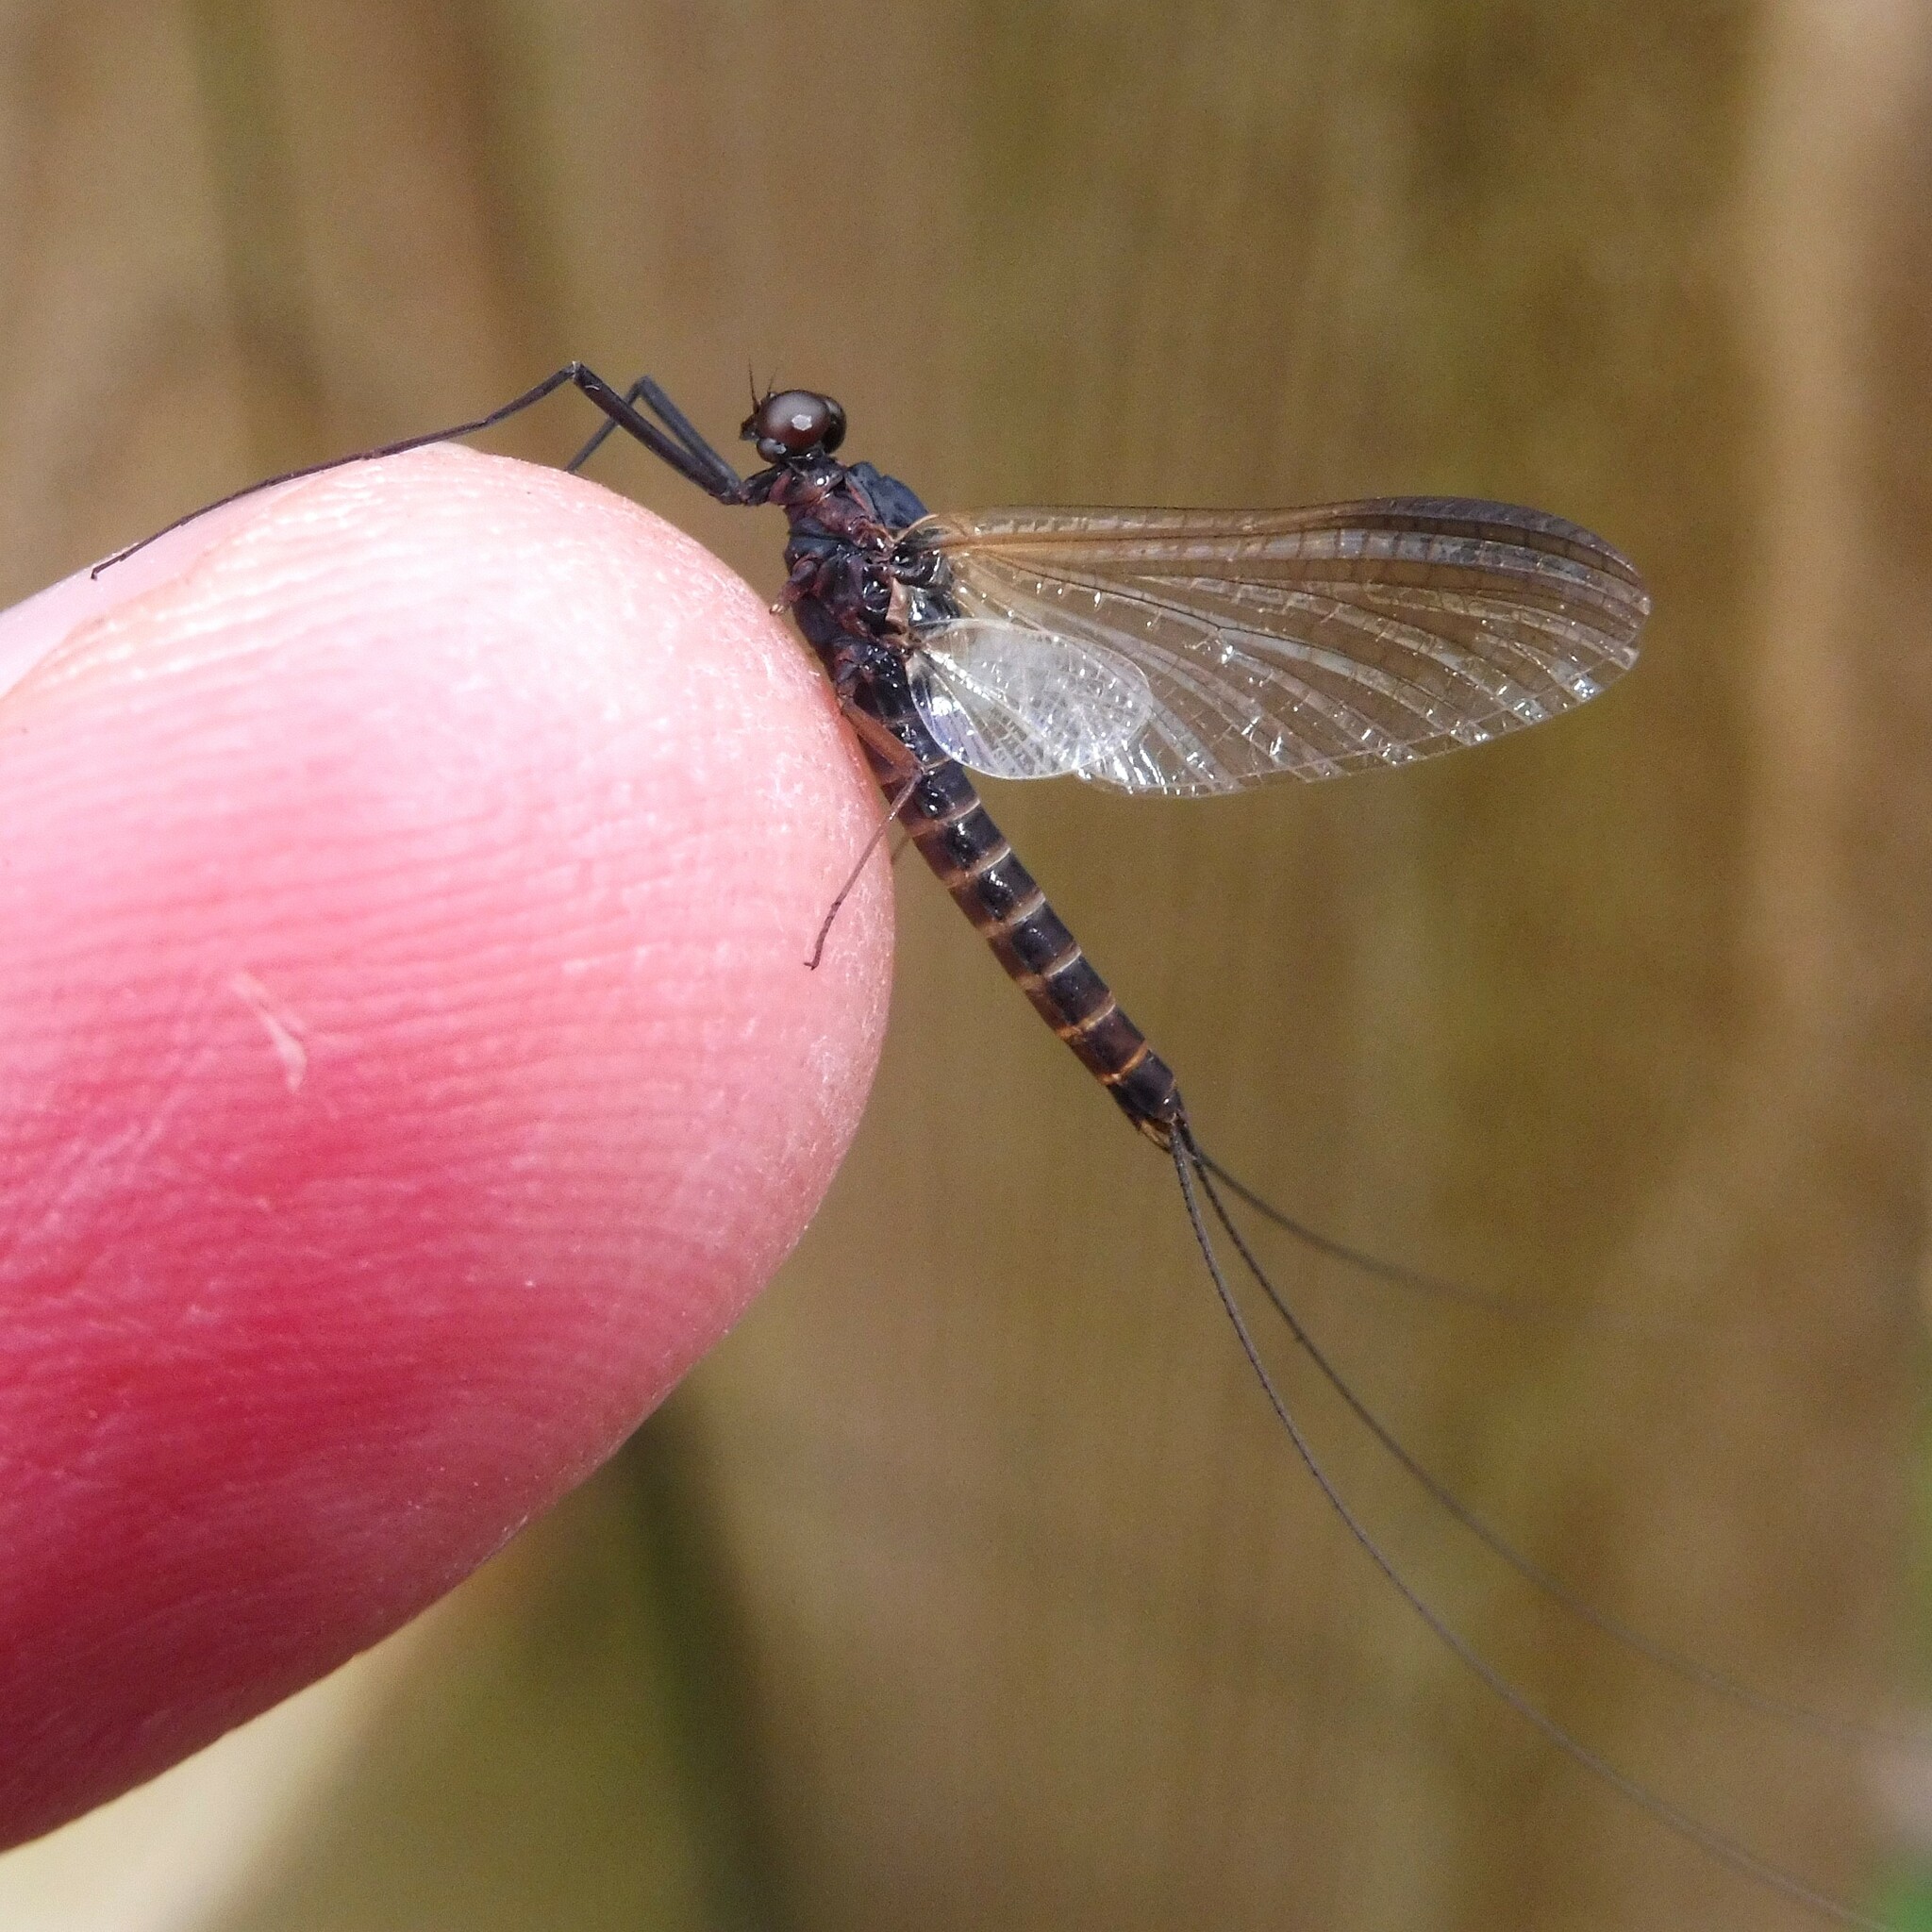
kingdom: Animalia
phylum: Arthropoda
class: Insecta
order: Ephemeroptera
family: Leptophlebiidae
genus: Leptophlebia
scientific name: Leptophlebia marginata
